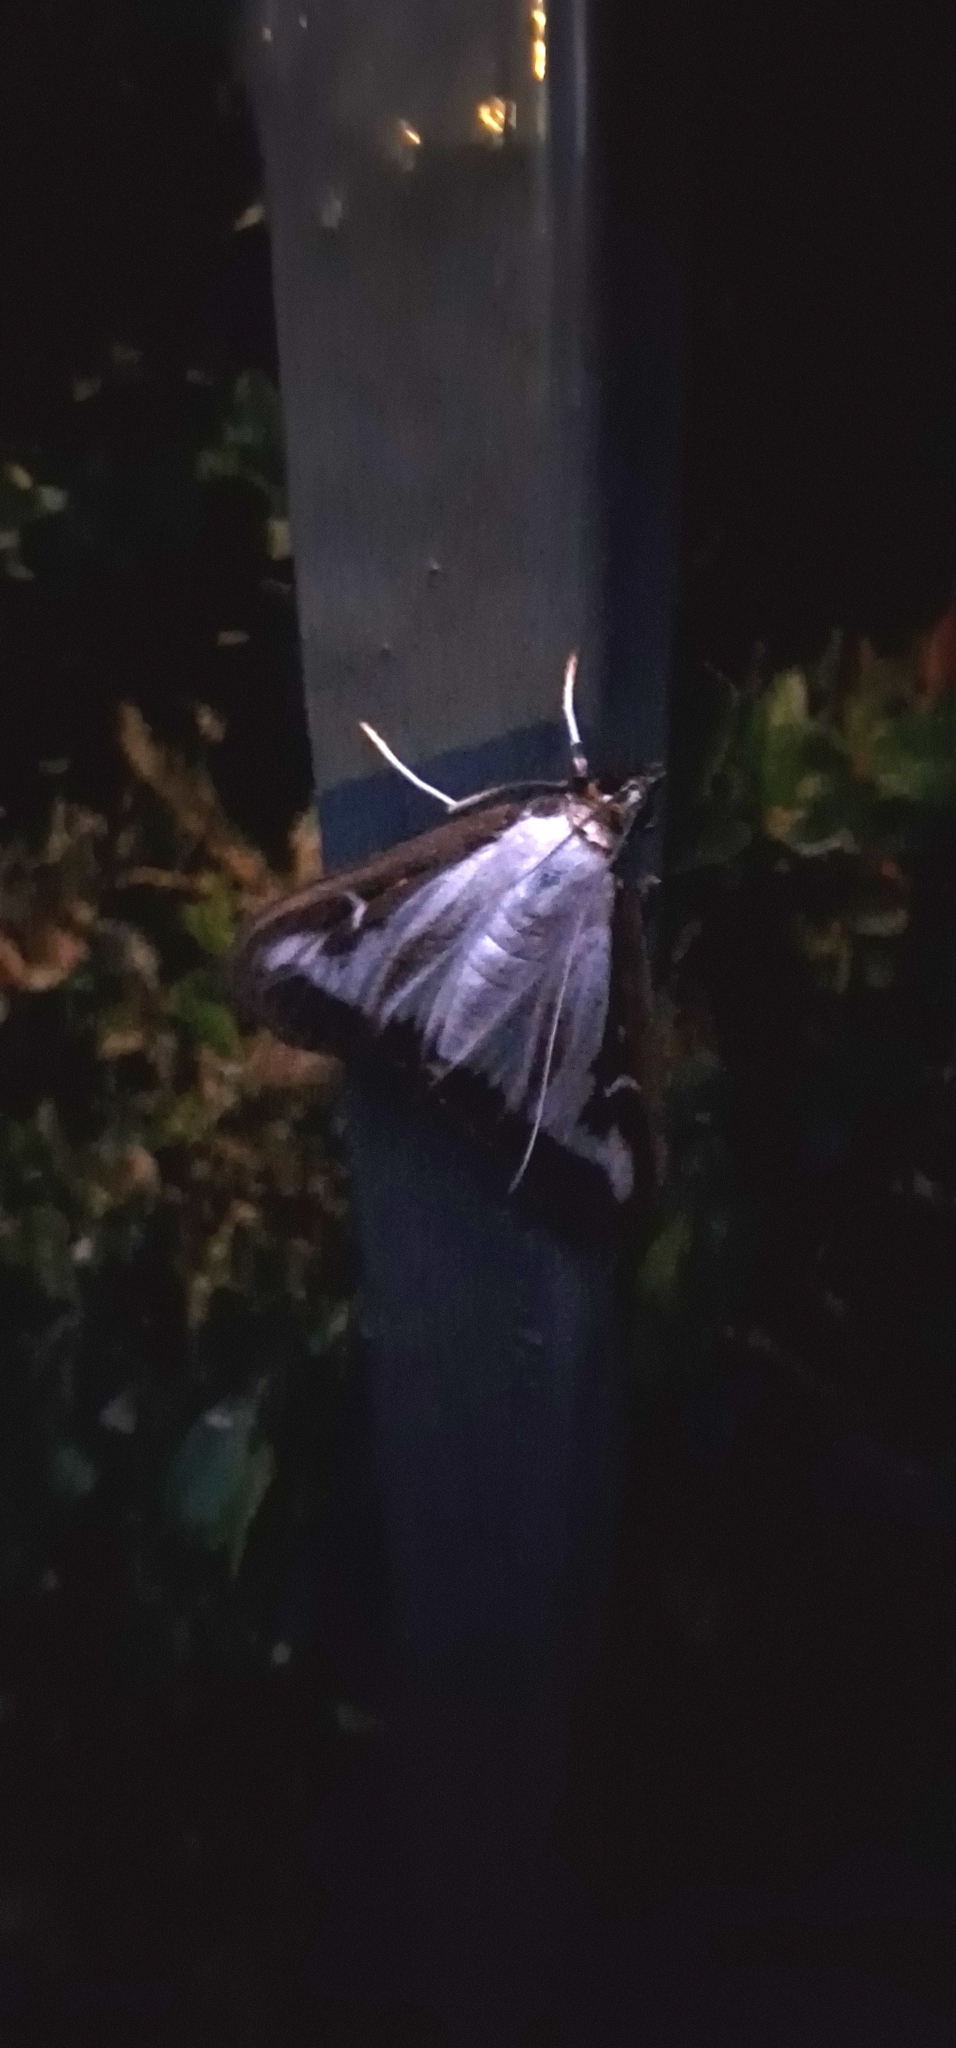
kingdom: Animalia
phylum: Arthropoda
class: Insecta
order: Lepidoptera
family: Crambidae
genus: Cydalima
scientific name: Cydalima perspectalis
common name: Box tree moth
